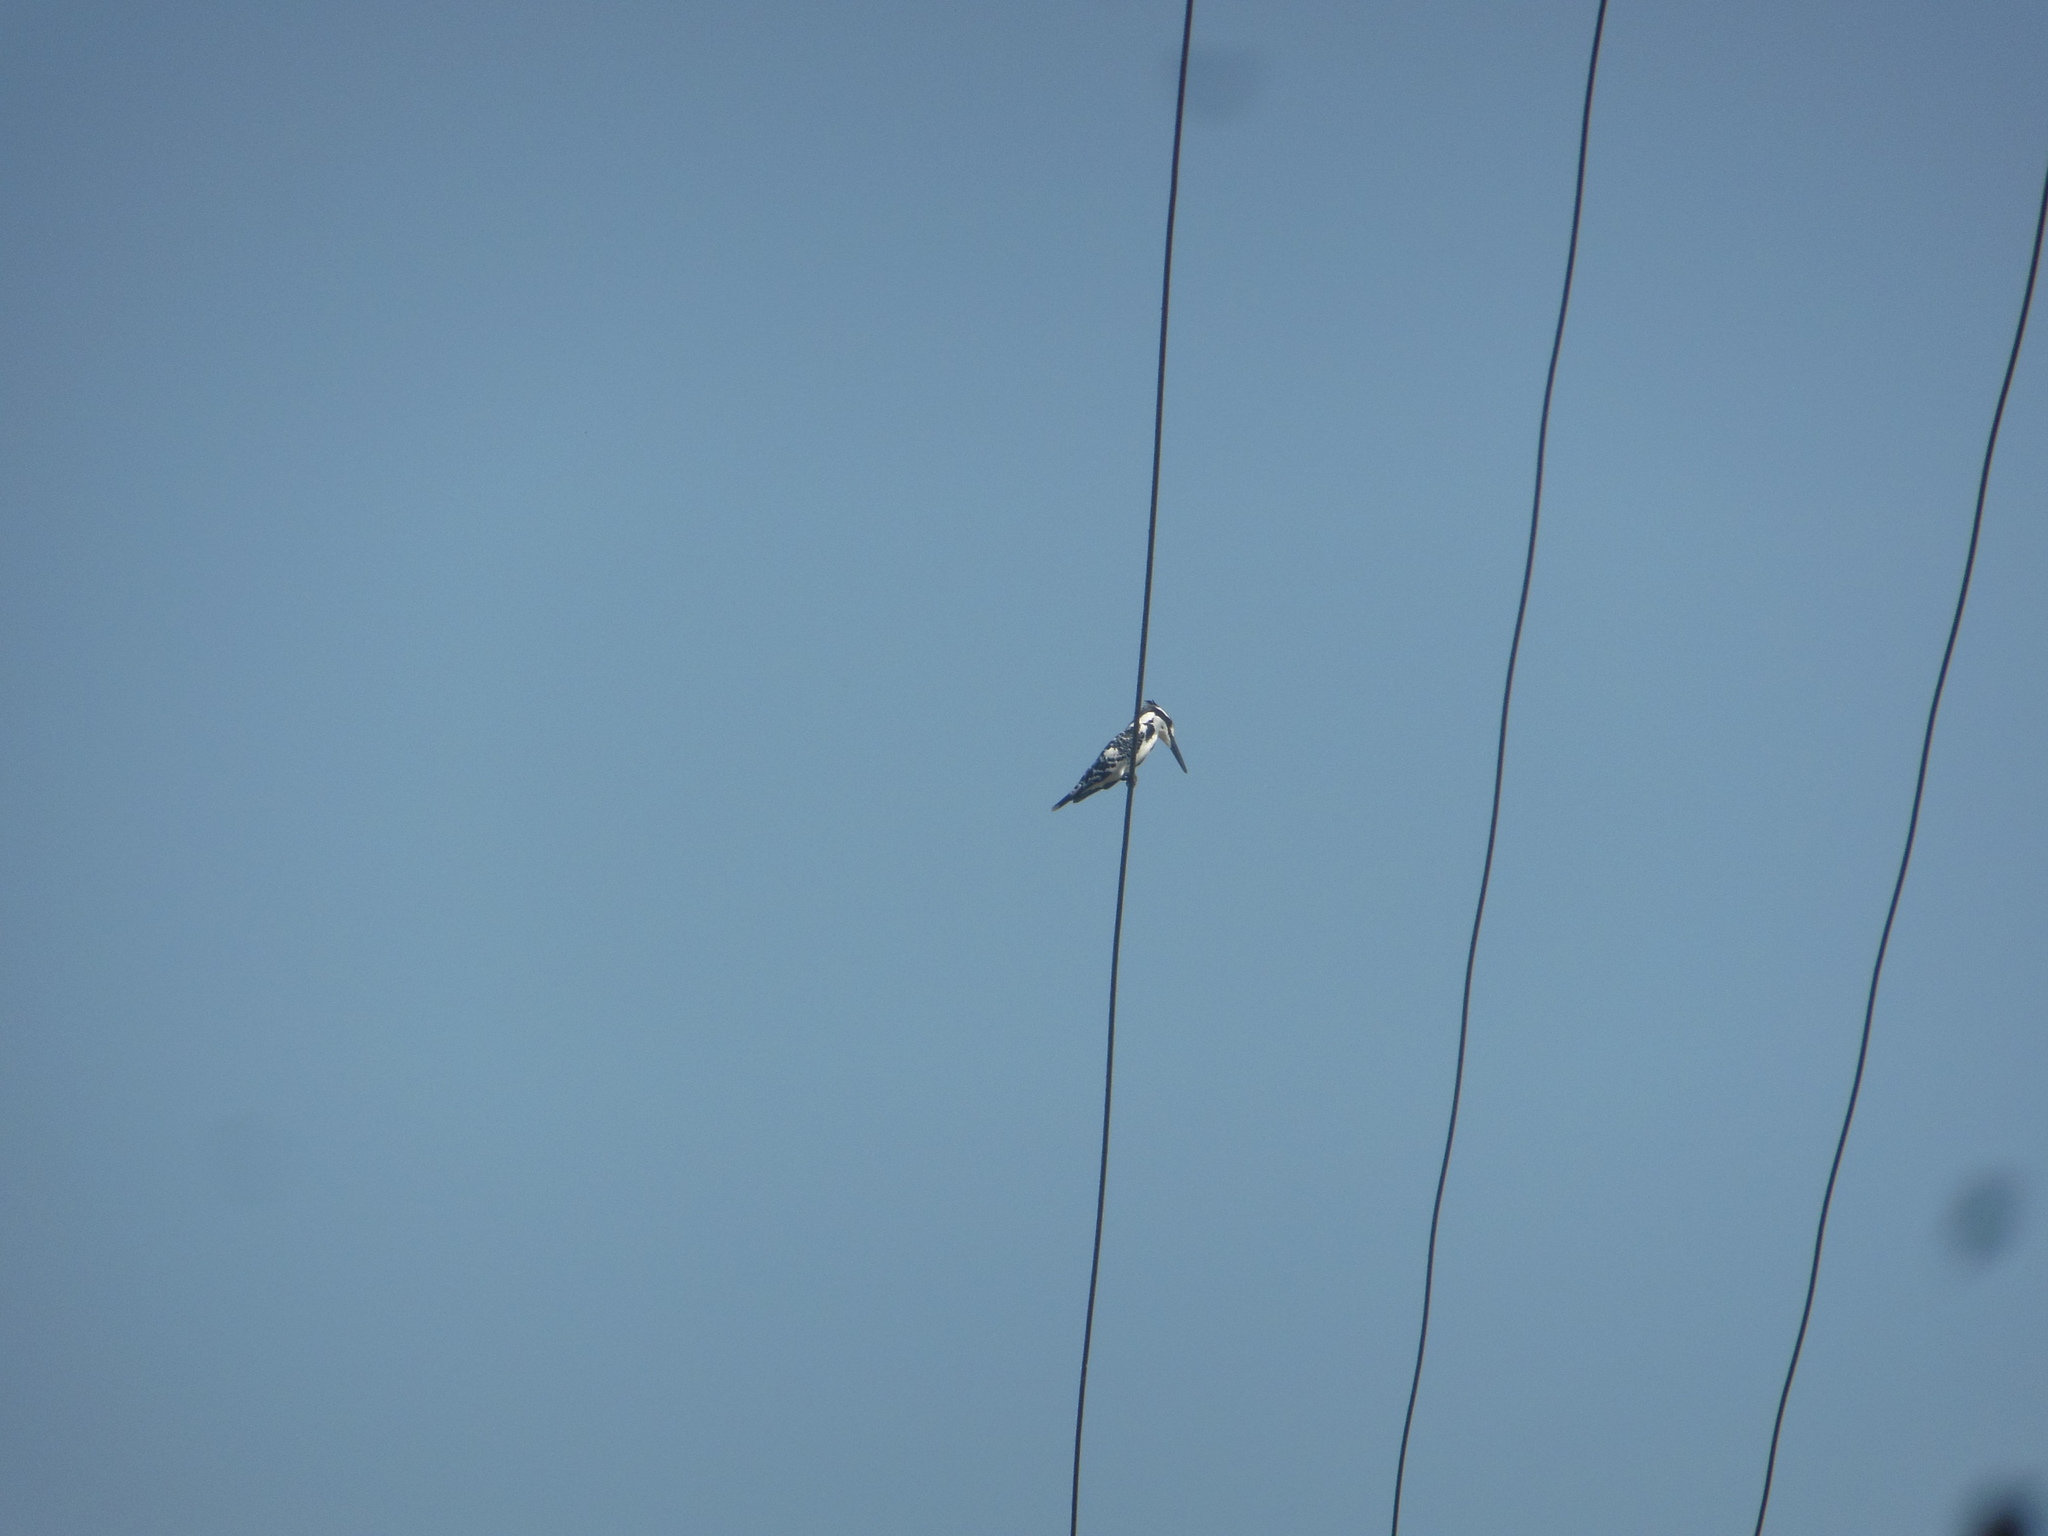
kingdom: Animalia
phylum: Chordata
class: Aves
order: Coraciiformes
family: Alcedinidae
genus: Ceryle
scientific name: Ceryle rudis
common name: Pied kingfisher
